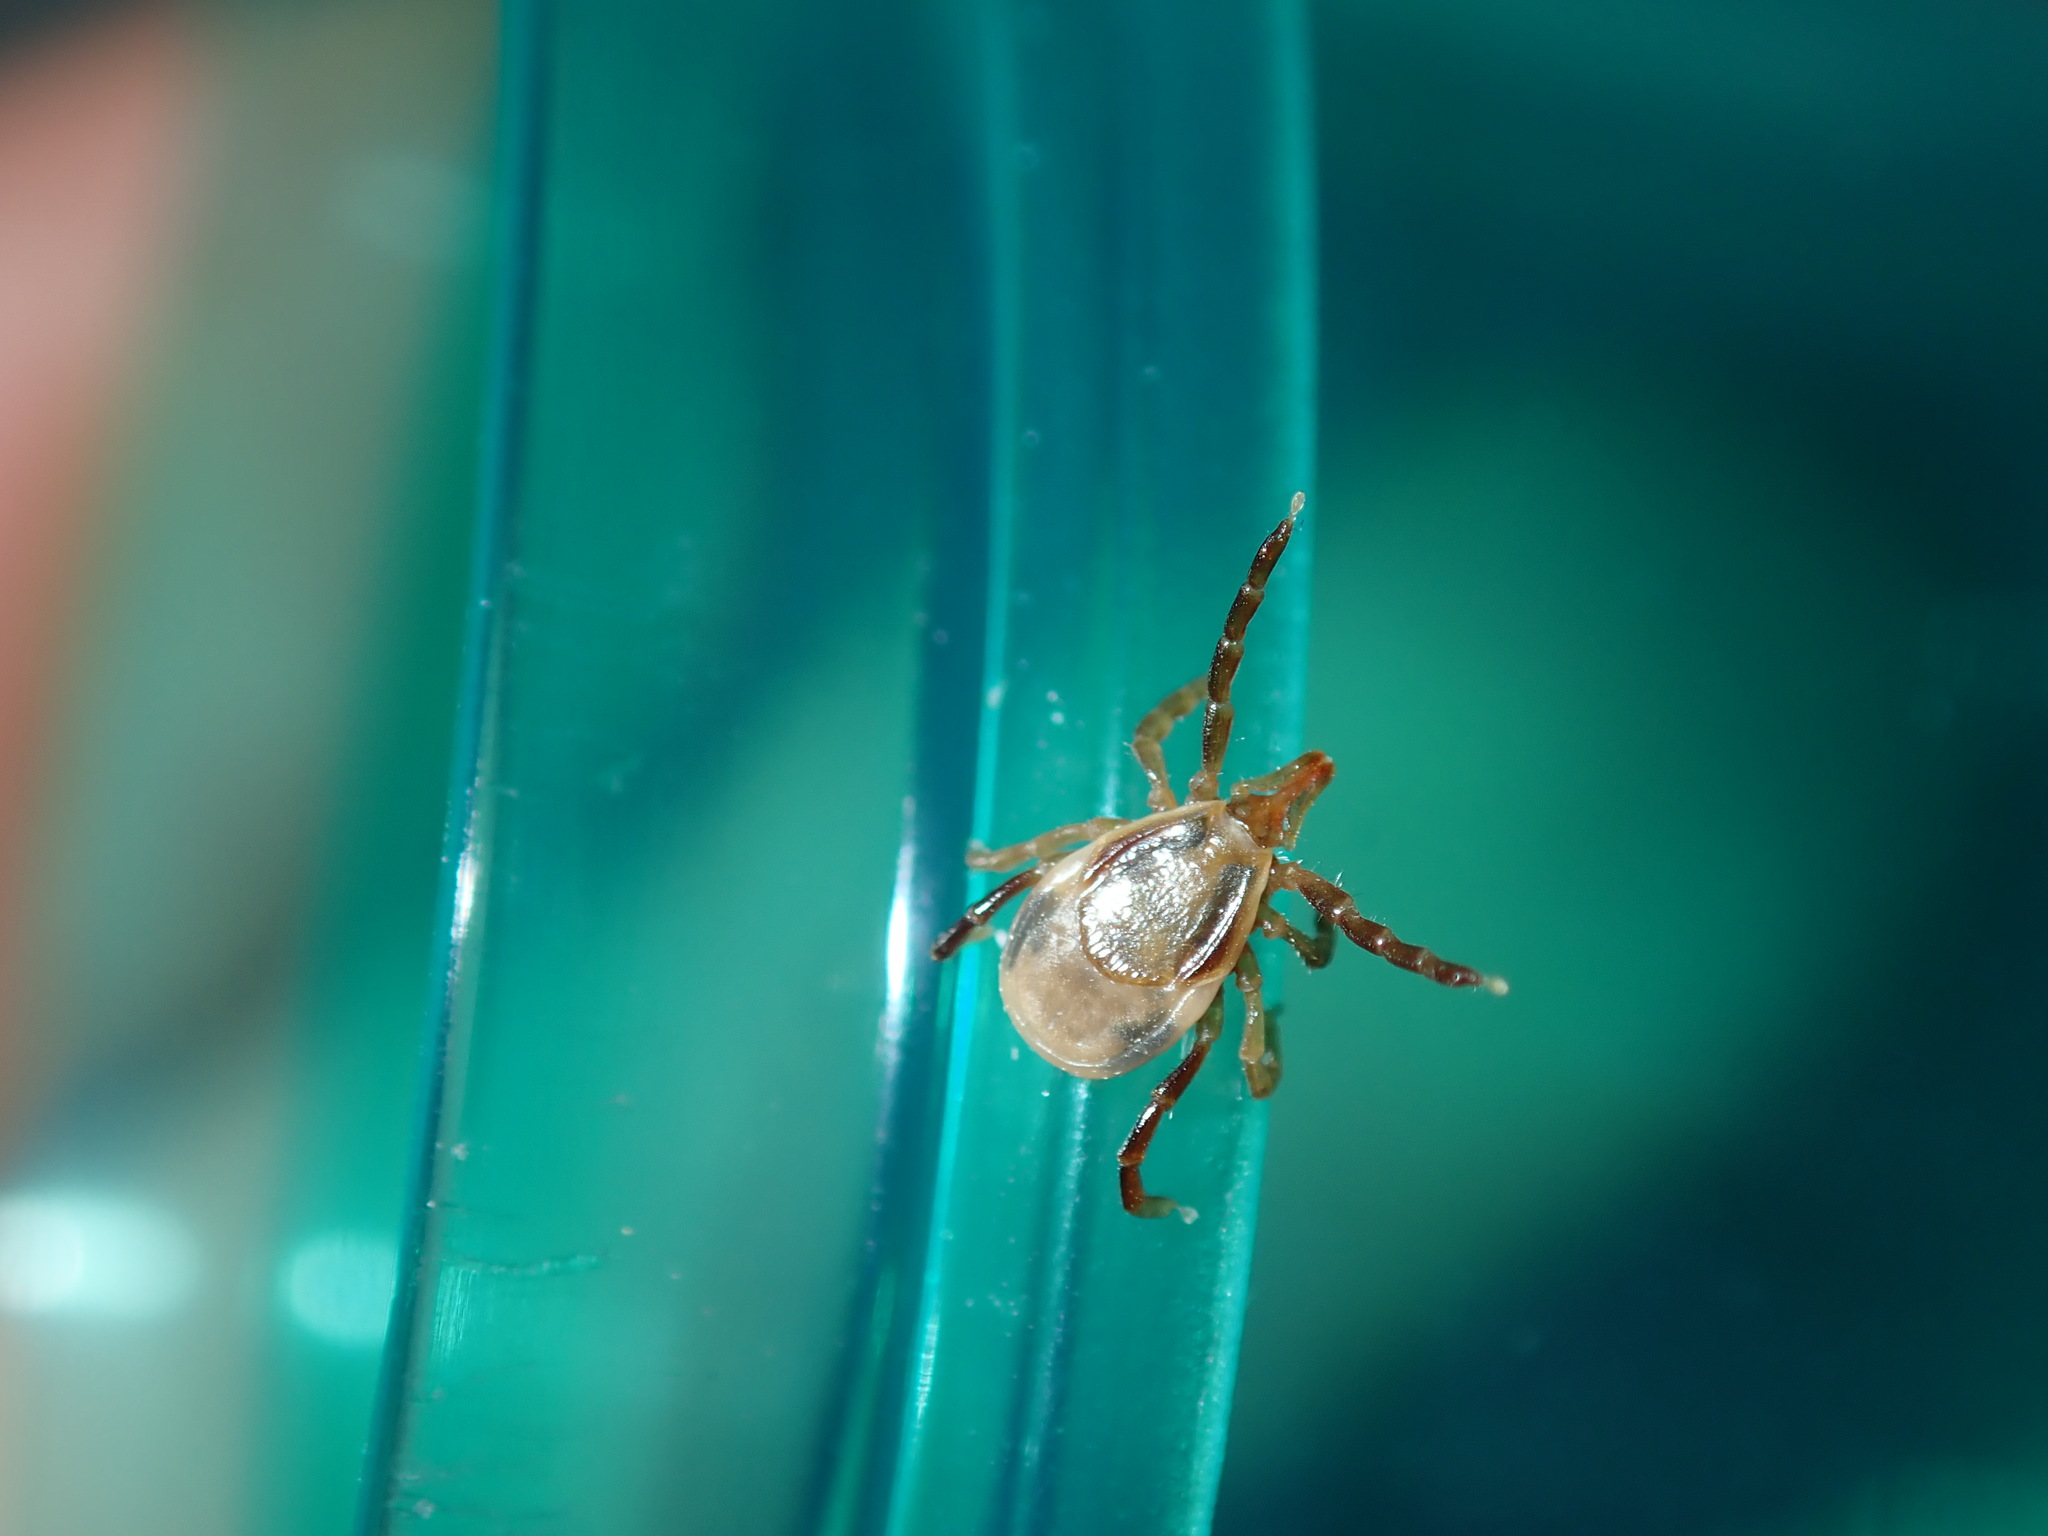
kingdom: Animalia
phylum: Arthropoda
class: Arachnida
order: Ixodida
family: Ixodidae
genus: Ixodes
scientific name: Ixodes holocyclus
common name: Australian paralysis tick
